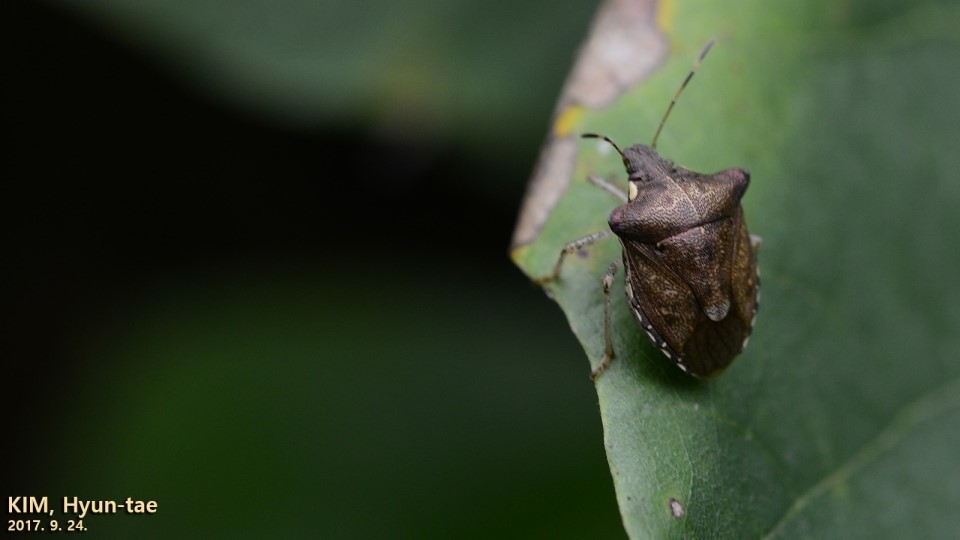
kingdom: Animalia
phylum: Arthropoda
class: Insecta
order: Hemiptera
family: Pentatomidae
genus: Carbula
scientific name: Carbula putoni
